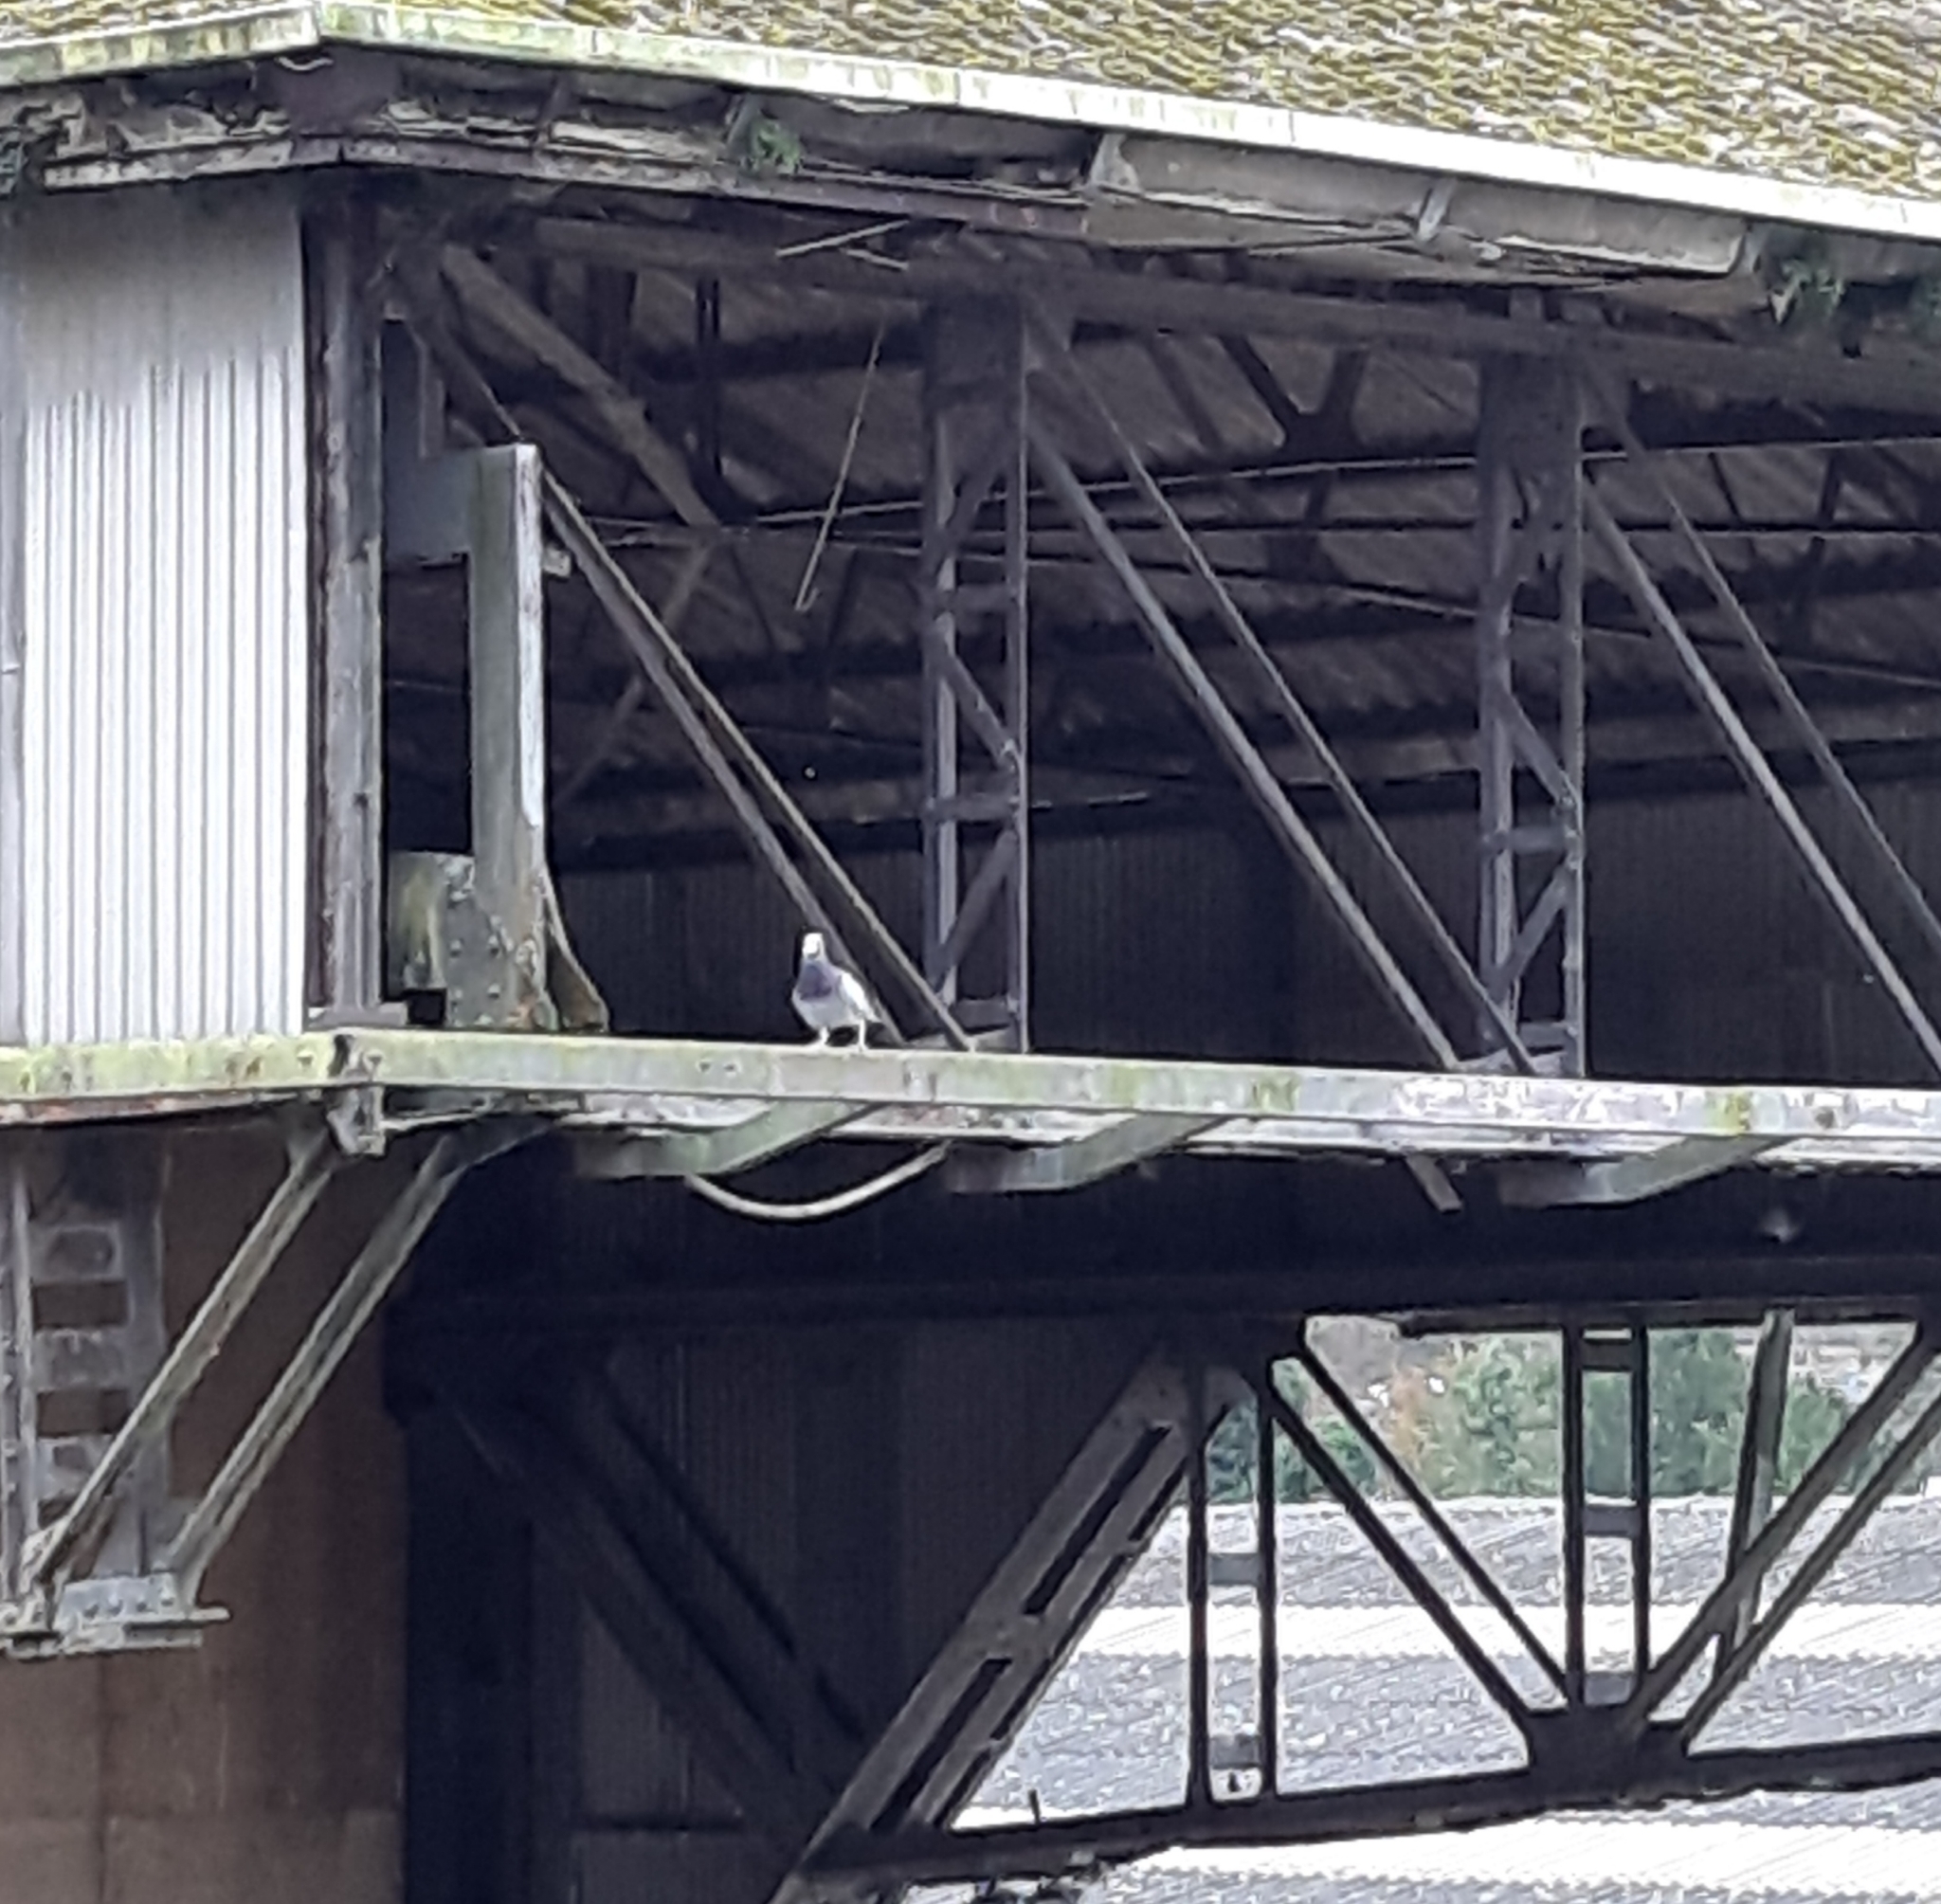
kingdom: Animalia
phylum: Chordata
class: Aves
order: Columbiformes
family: Columbidae
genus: Columba
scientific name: Columba livia
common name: Rock pigeon
